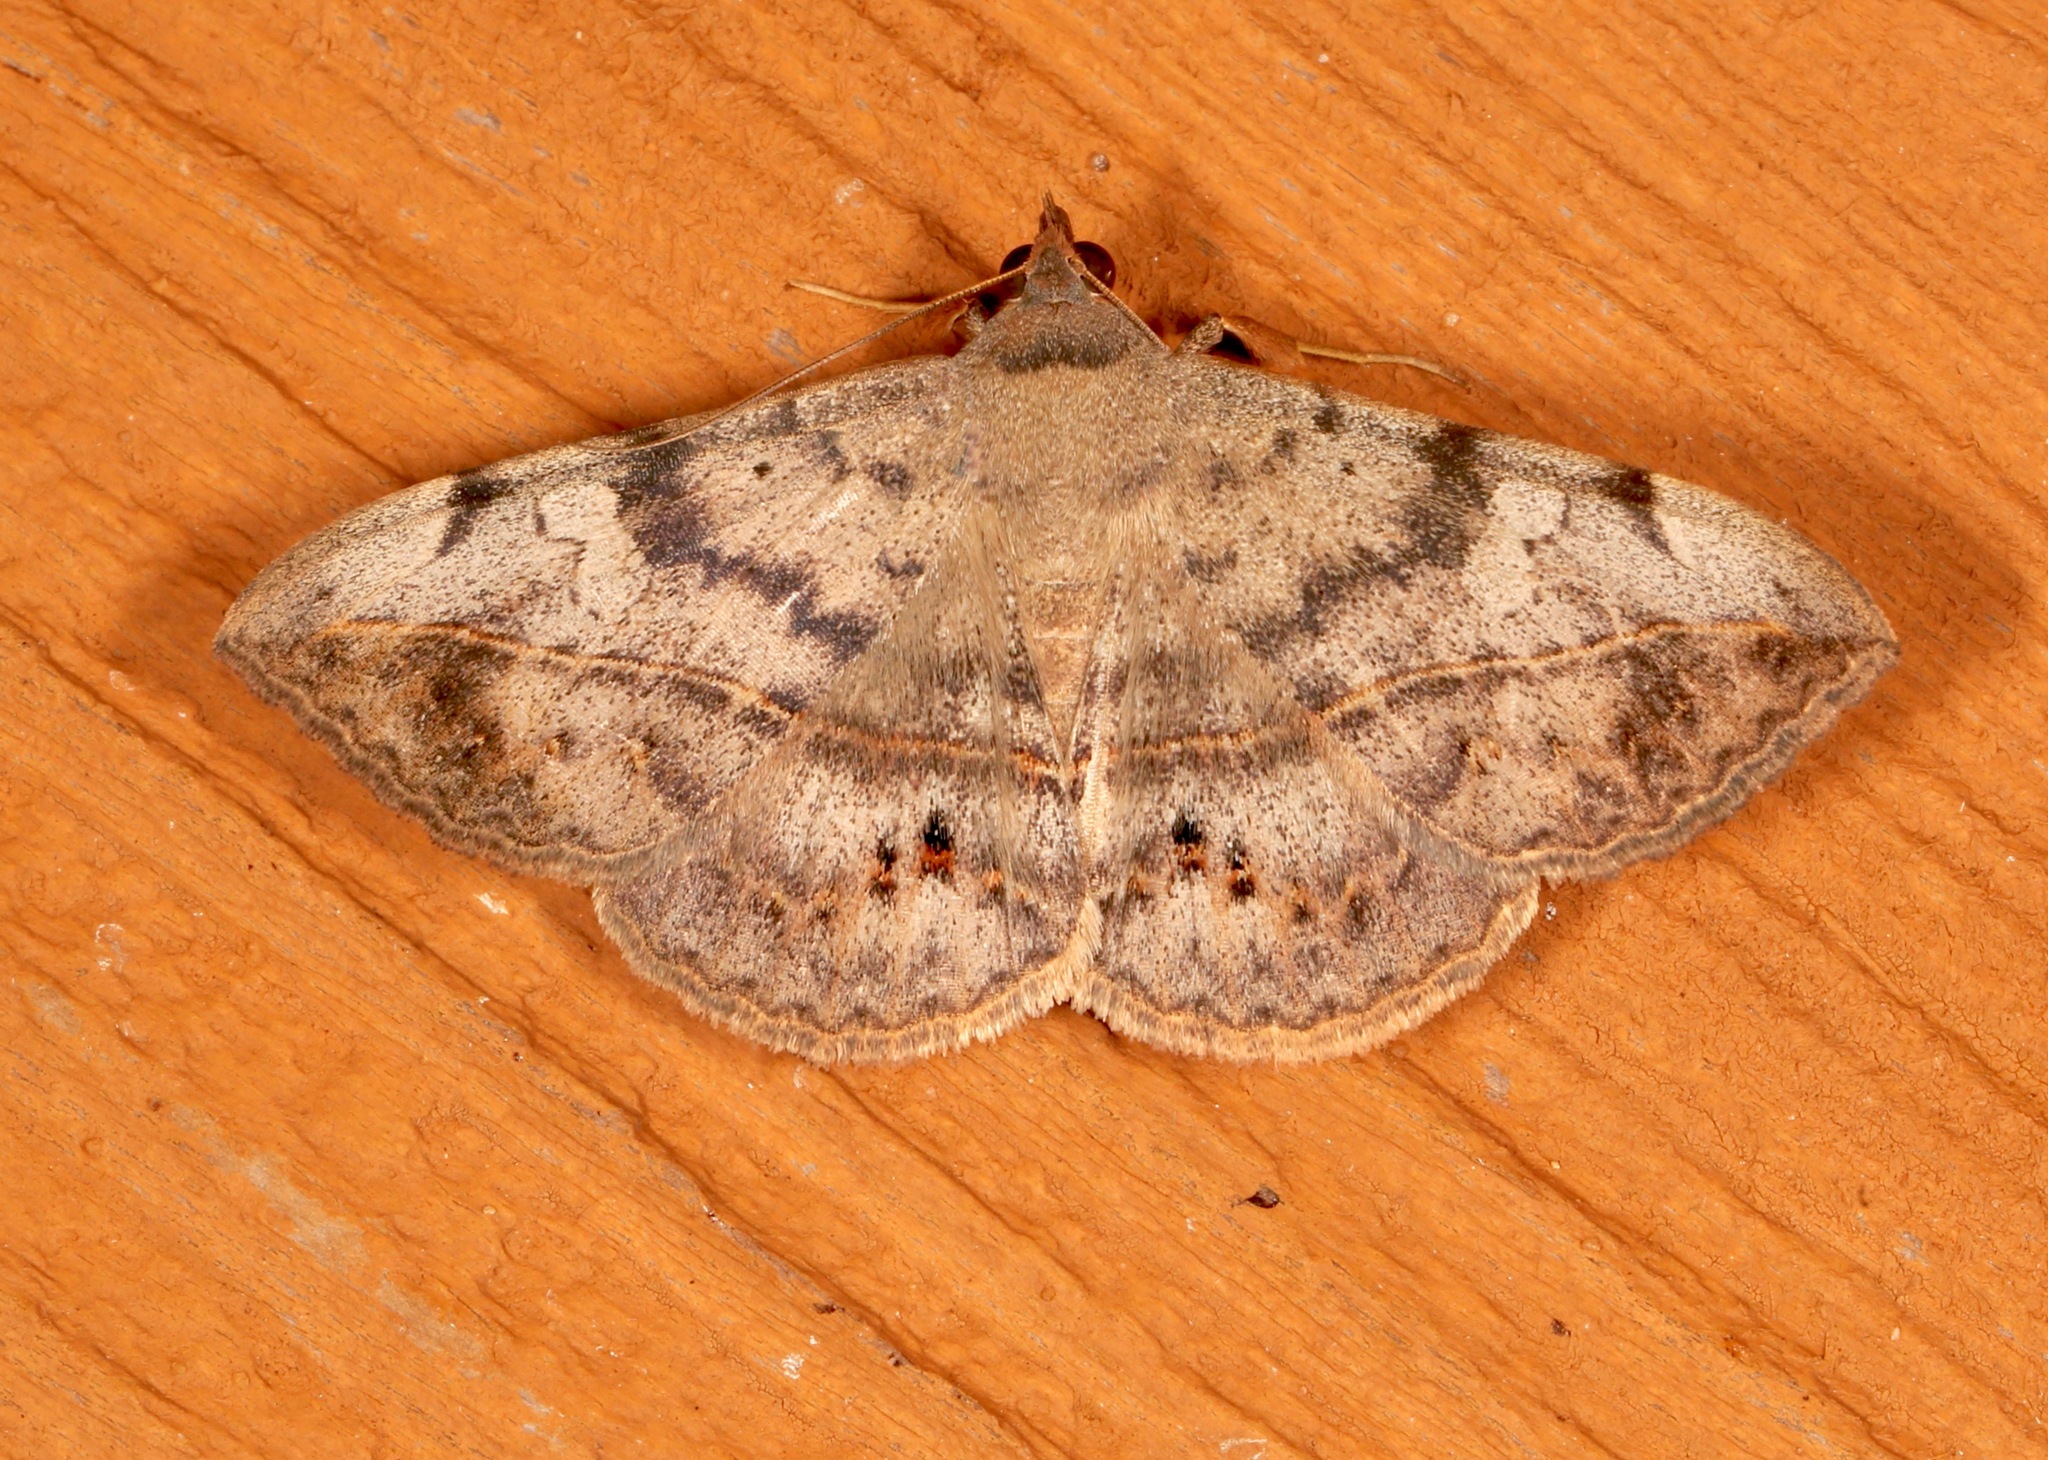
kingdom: Animalia
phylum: Arthropoda
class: Insecta
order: Lepidoptera
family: Erebidae
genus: Anticarsia
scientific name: Anticarsia gemmatalis
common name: Cutworm moth
